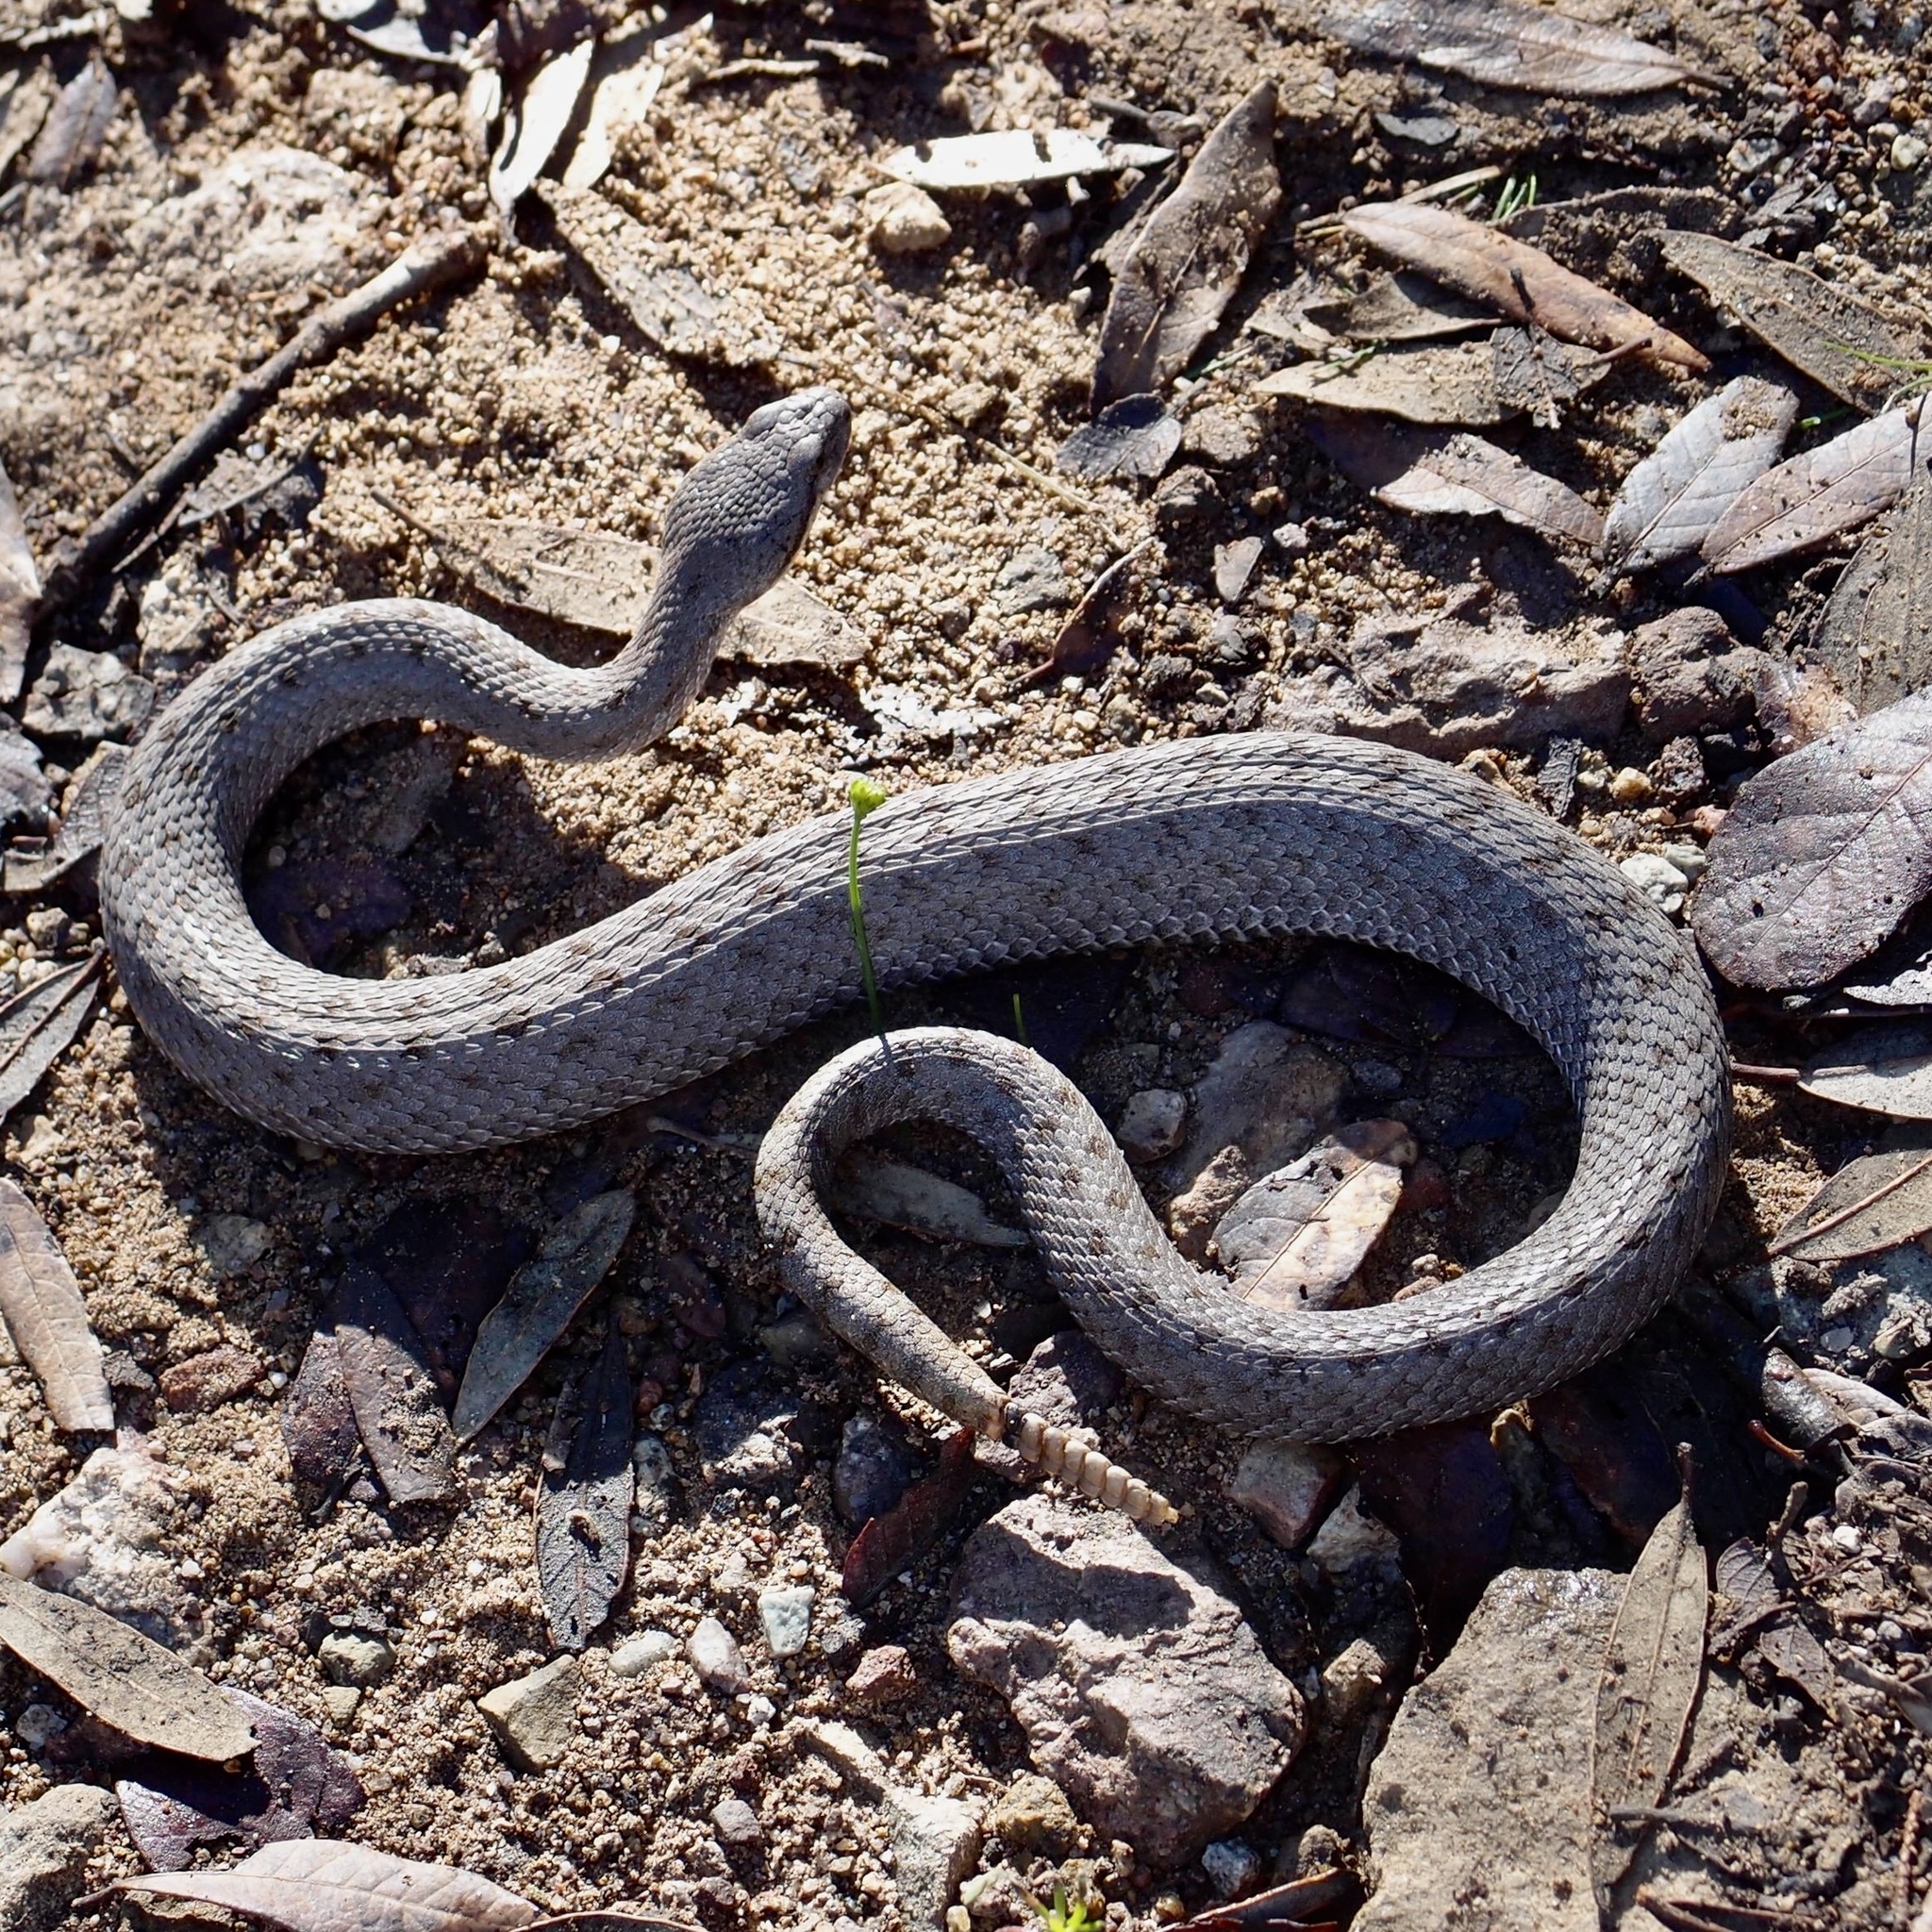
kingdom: Animalia
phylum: Chordata
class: Squamata
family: Viperidae
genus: Crotalus
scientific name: Crotalus pricei
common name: Twin-spotted rattlesnake
